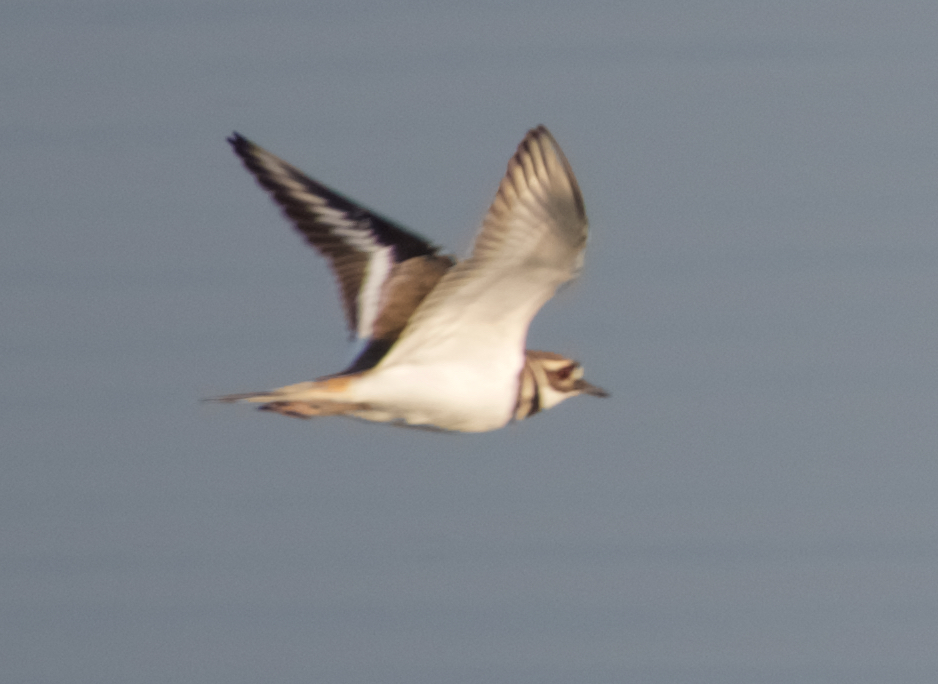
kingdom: Animalia
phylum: Chordata
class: Aves
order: Charadriiformes
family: Charadriidae
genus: Charadrius
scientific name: Charadrius vociferus
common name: Killdeer
